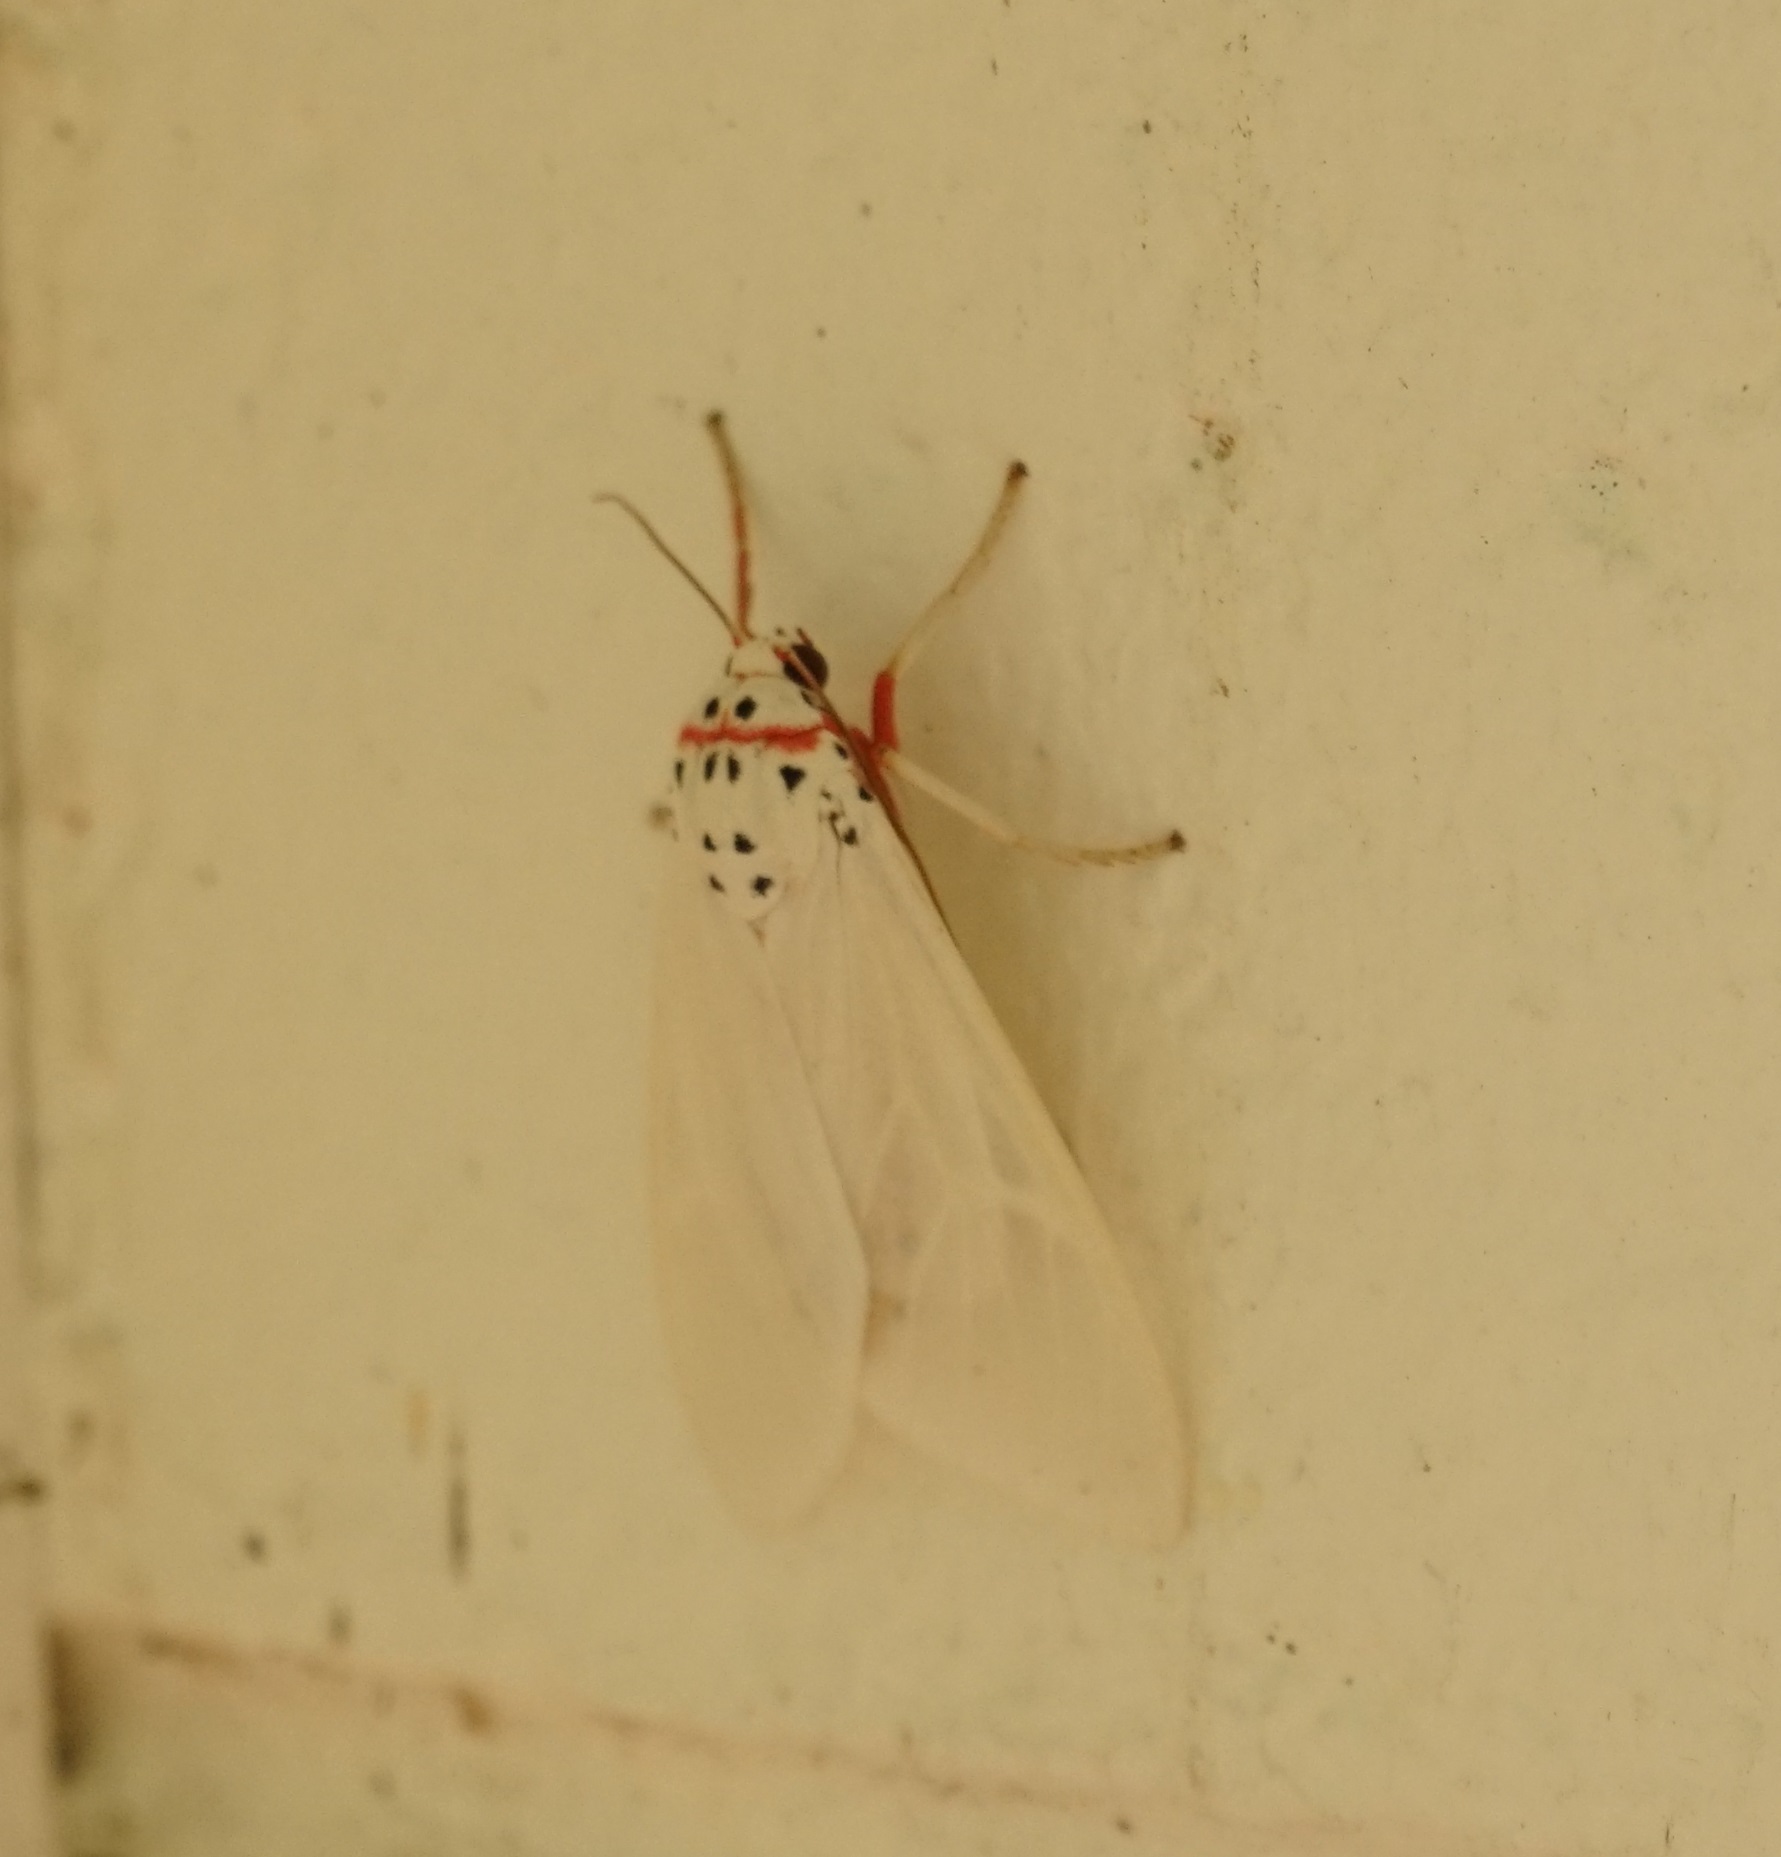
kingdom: Animalia
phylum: Arthropoda
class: Insecta
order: Lepidoptera
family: Erebidae
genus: Amerila
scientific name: Amerila rubripes
